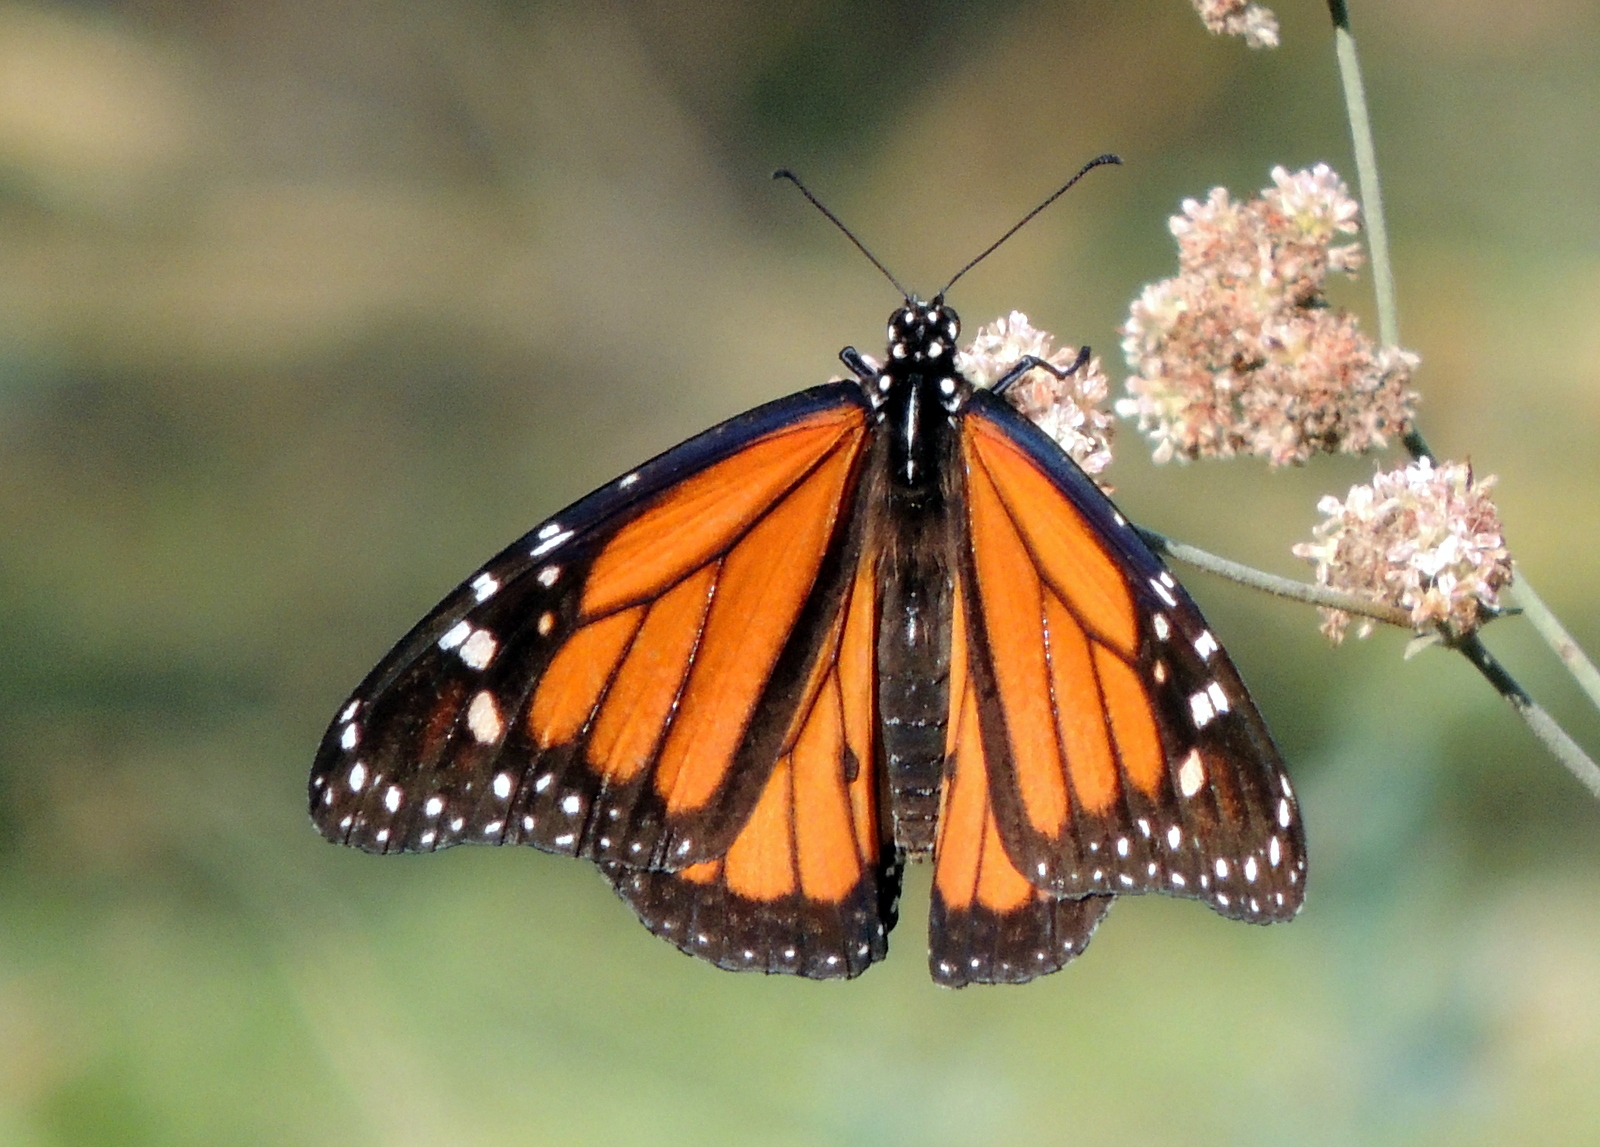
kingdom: Animalia
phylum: Arthropoda
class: Insecta
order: Lepidoptera
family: Nymphalidae
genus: Danaus
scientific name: Danaus plexippus
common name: Monarch
